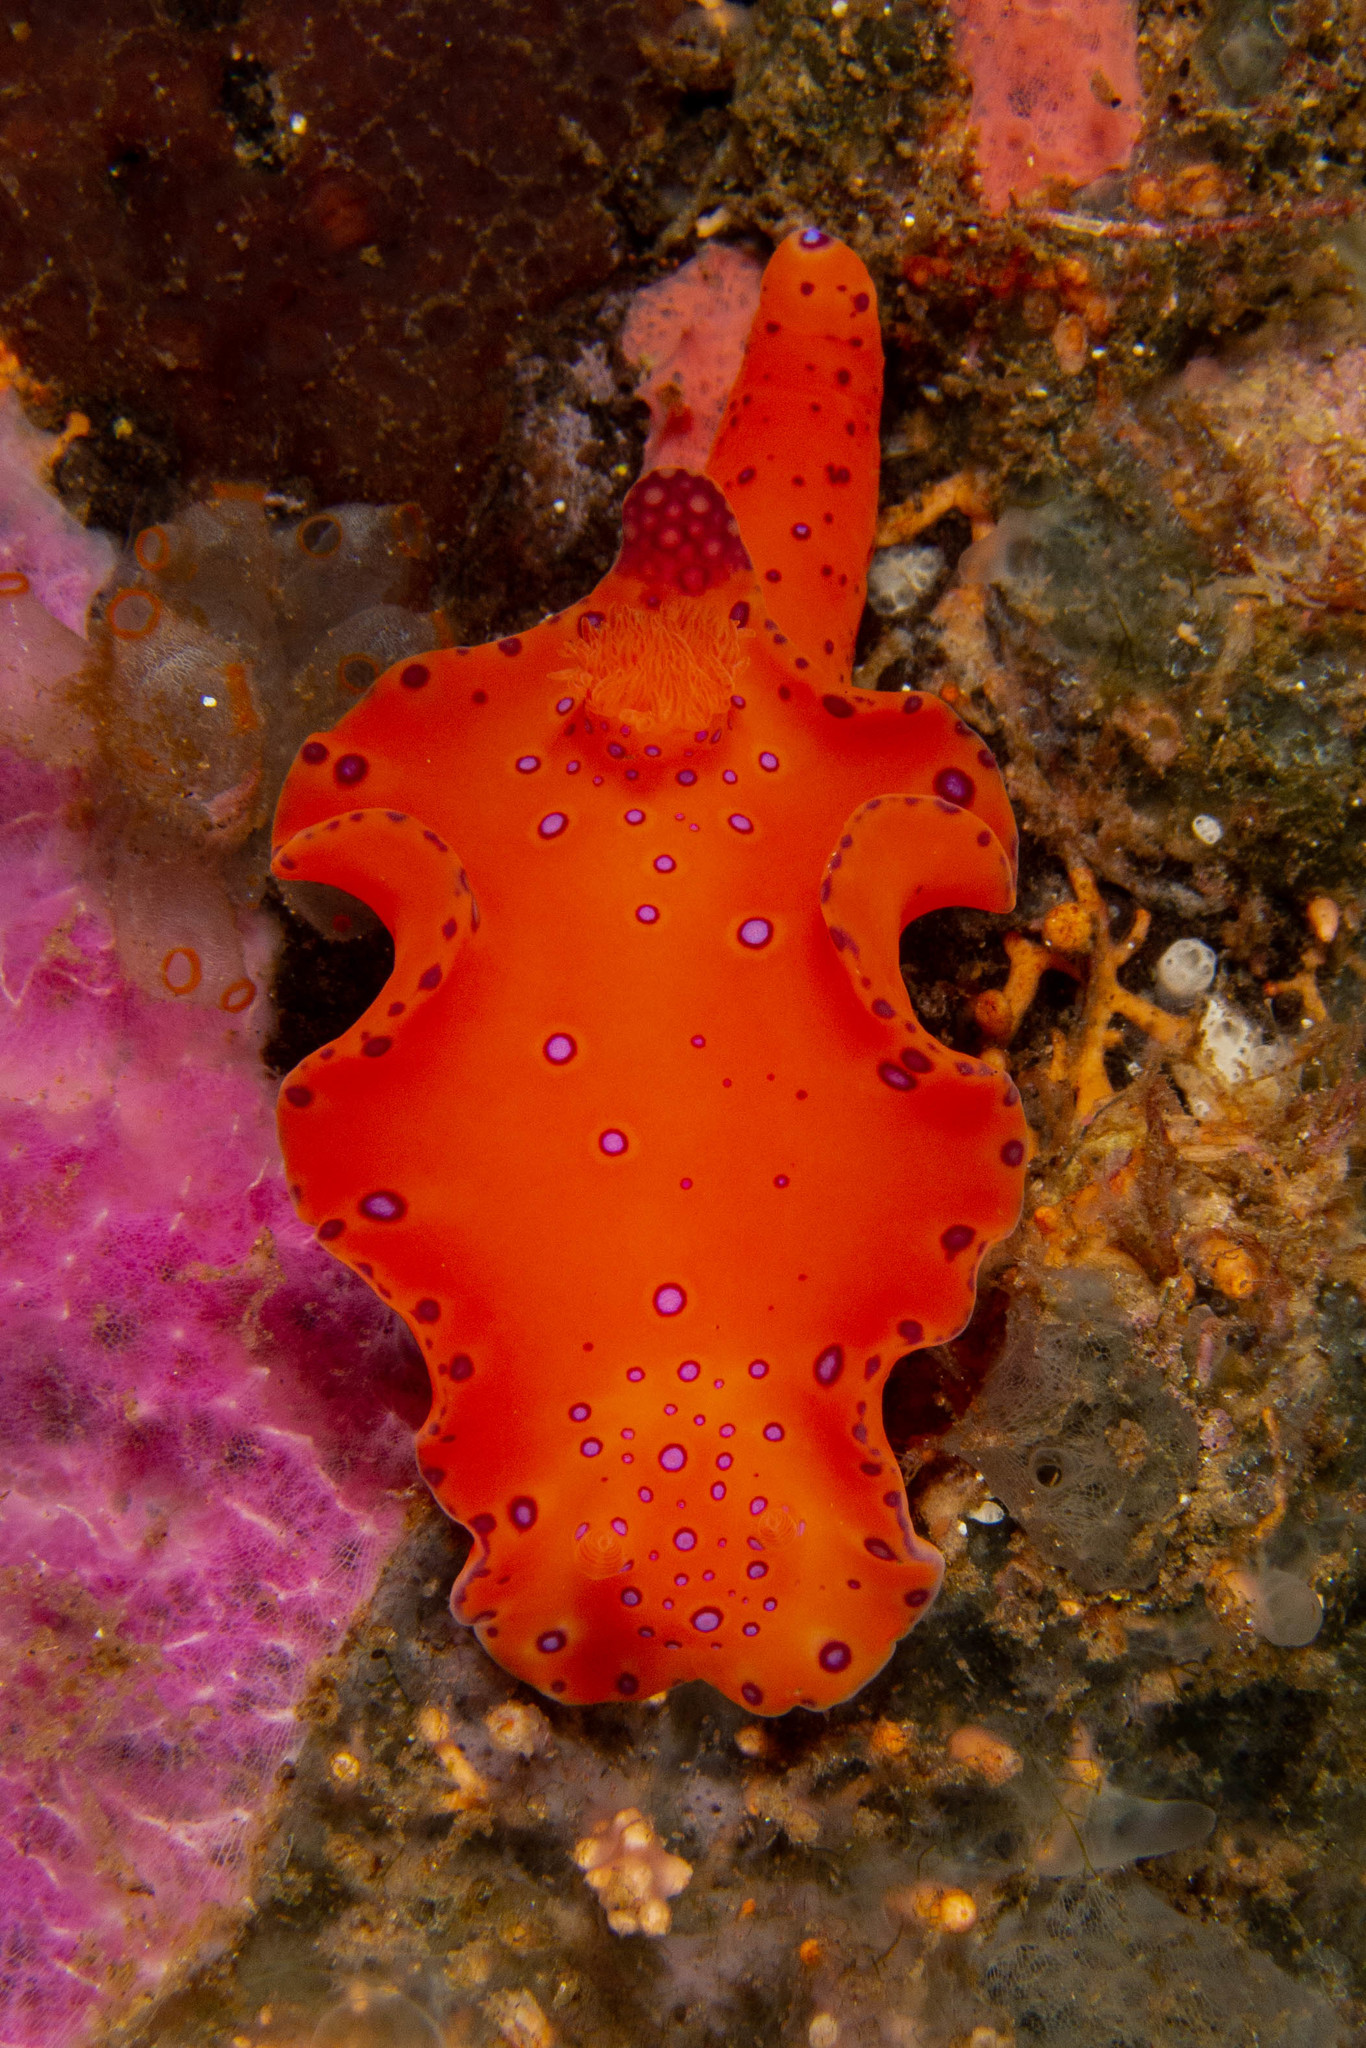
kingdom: Animalia
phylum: Mollusca
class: Gastropoda
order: Nudibranchia
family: Chromodorididae
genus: Ceratosoma
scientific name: Ceratosoma brevicaudatum
